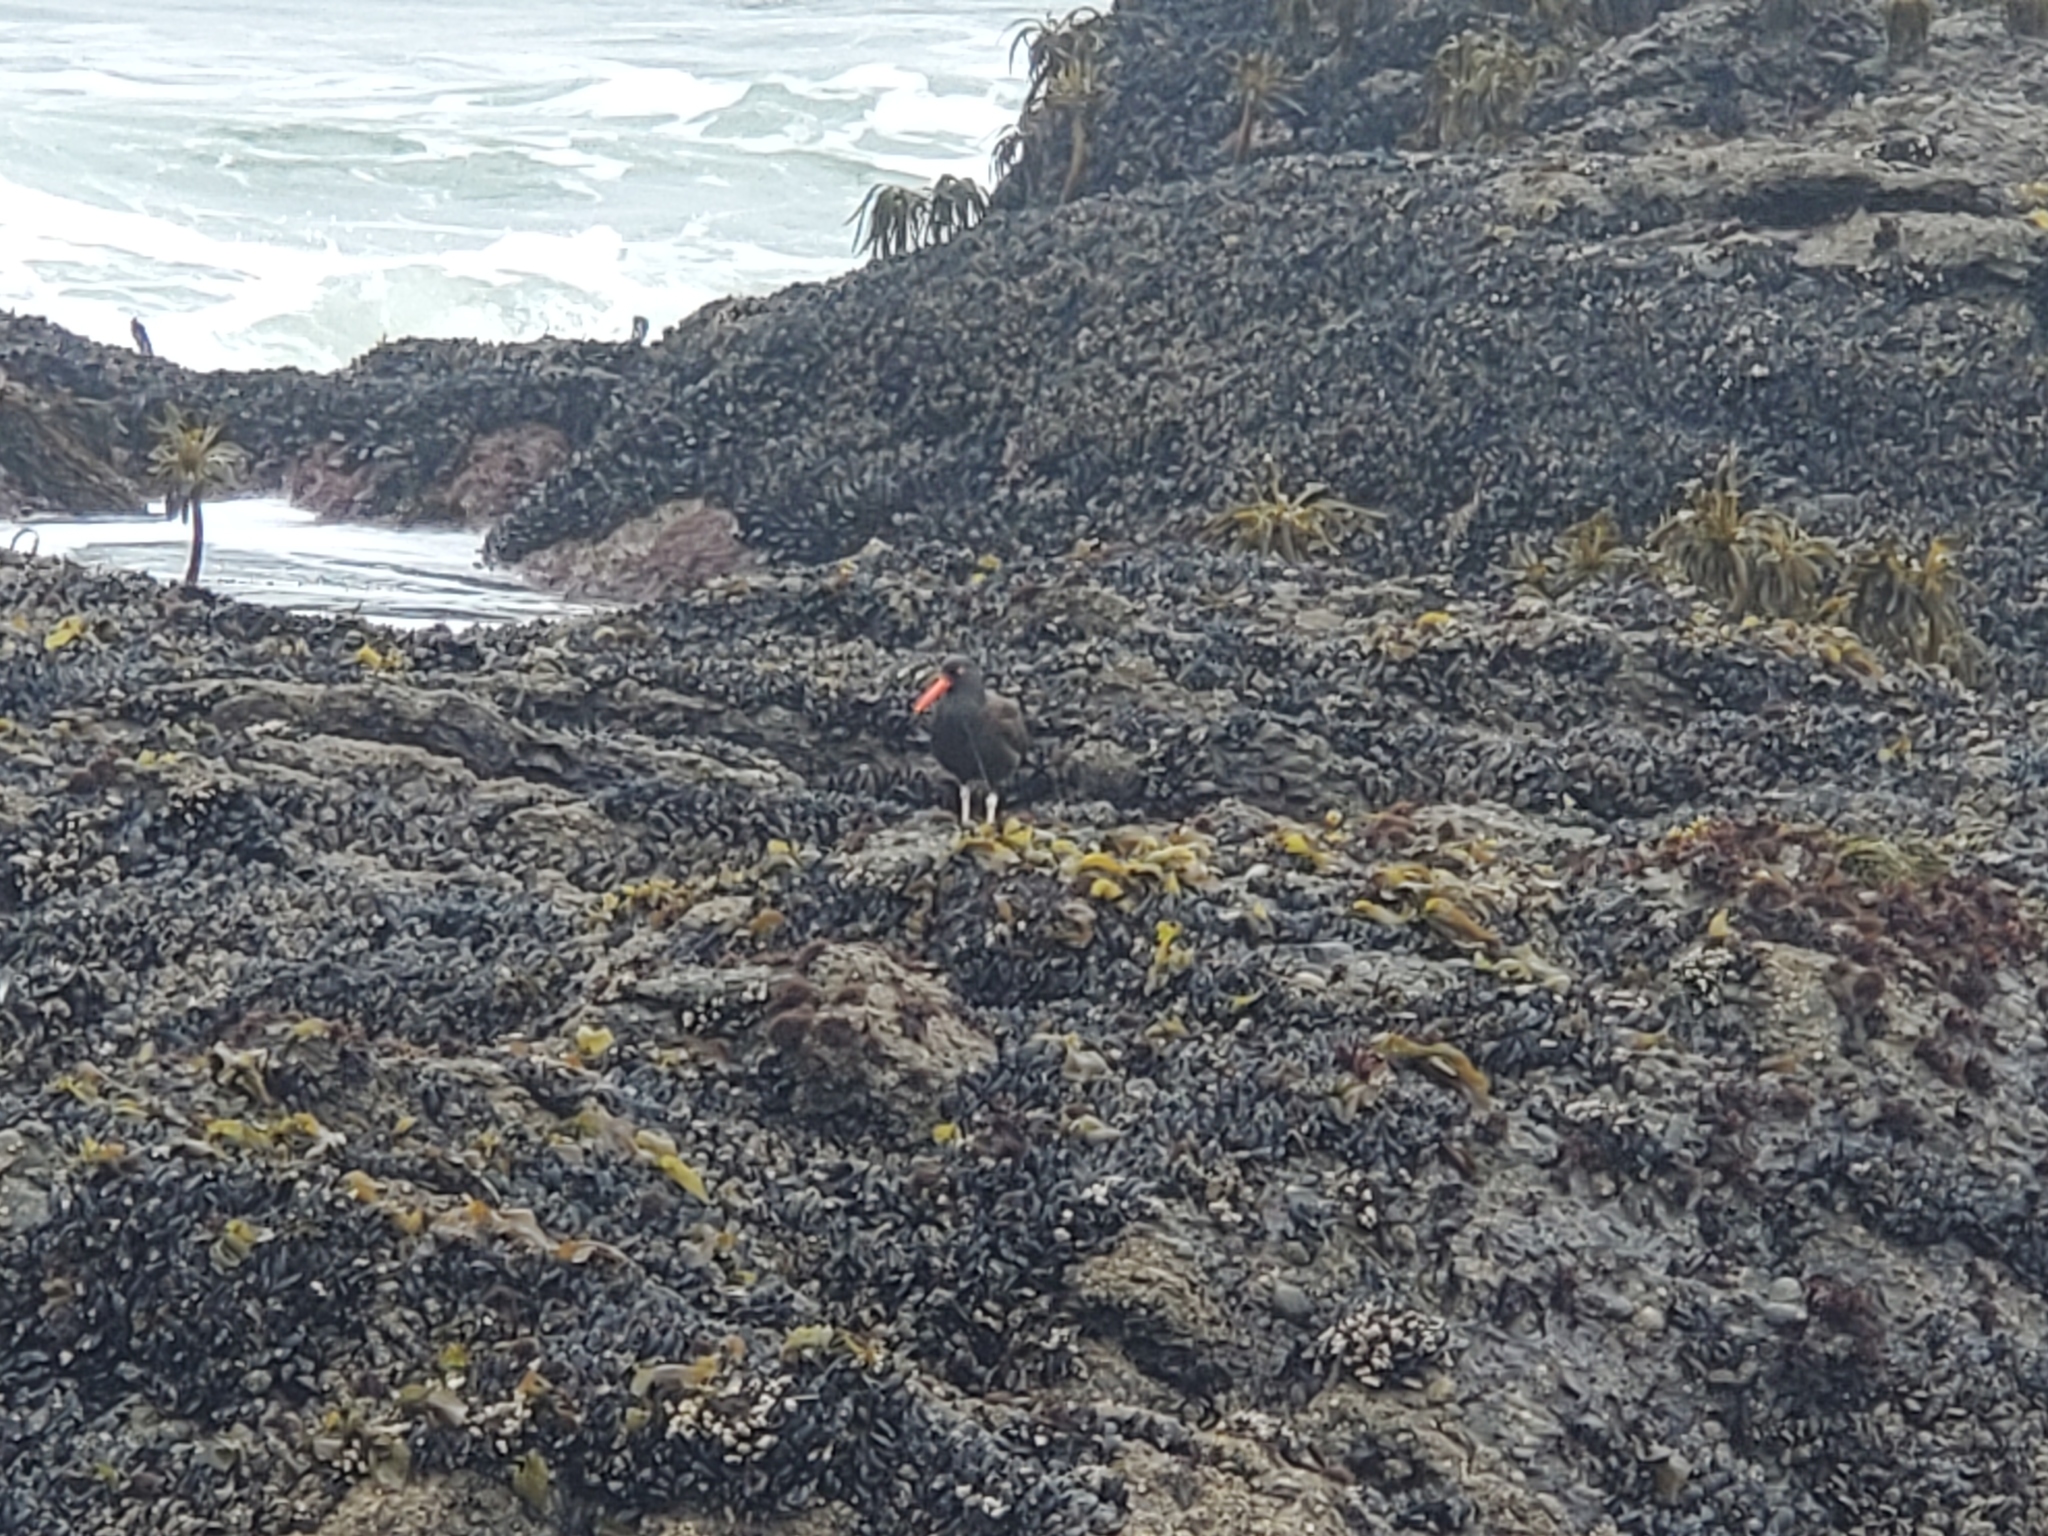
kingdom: Animalia
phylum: Chordata
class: Aves
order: Charadriiformes
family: Haematopodidae
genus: Haematopus
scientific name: Haematopus bachmani
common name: Black oystercatcher
